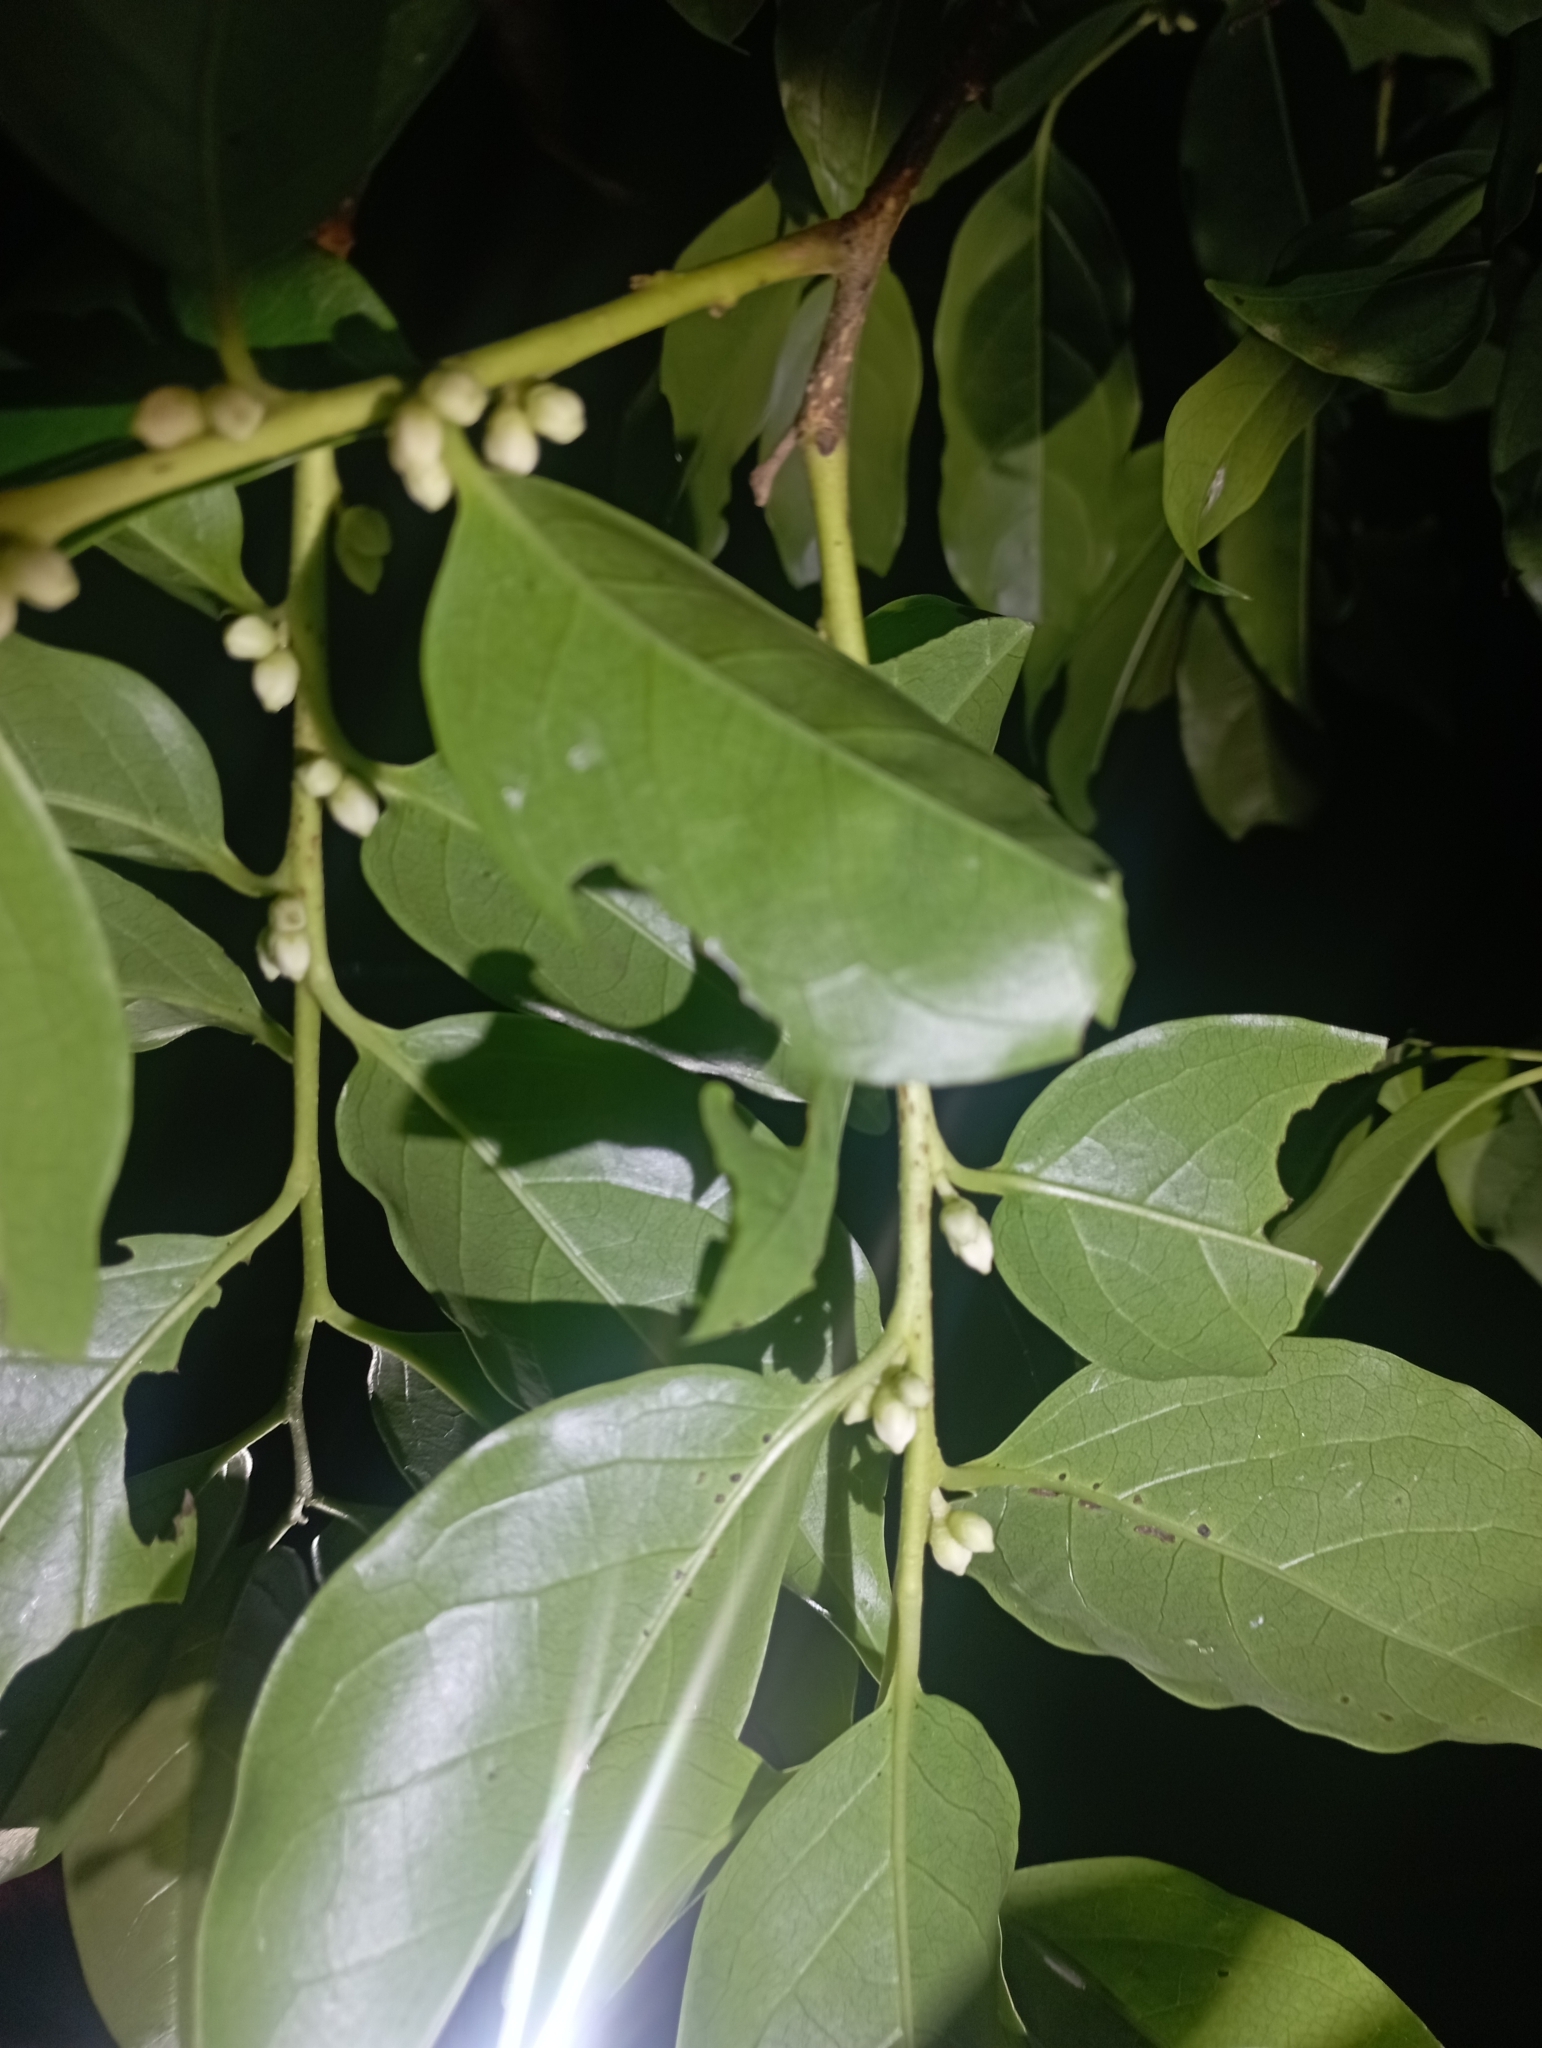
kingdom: Plantae
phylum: Tracheophyta
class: Magnoliopsida
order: Ericales
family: Ebenaceae
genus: Diospyros
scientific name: Diospyros morrisiana
